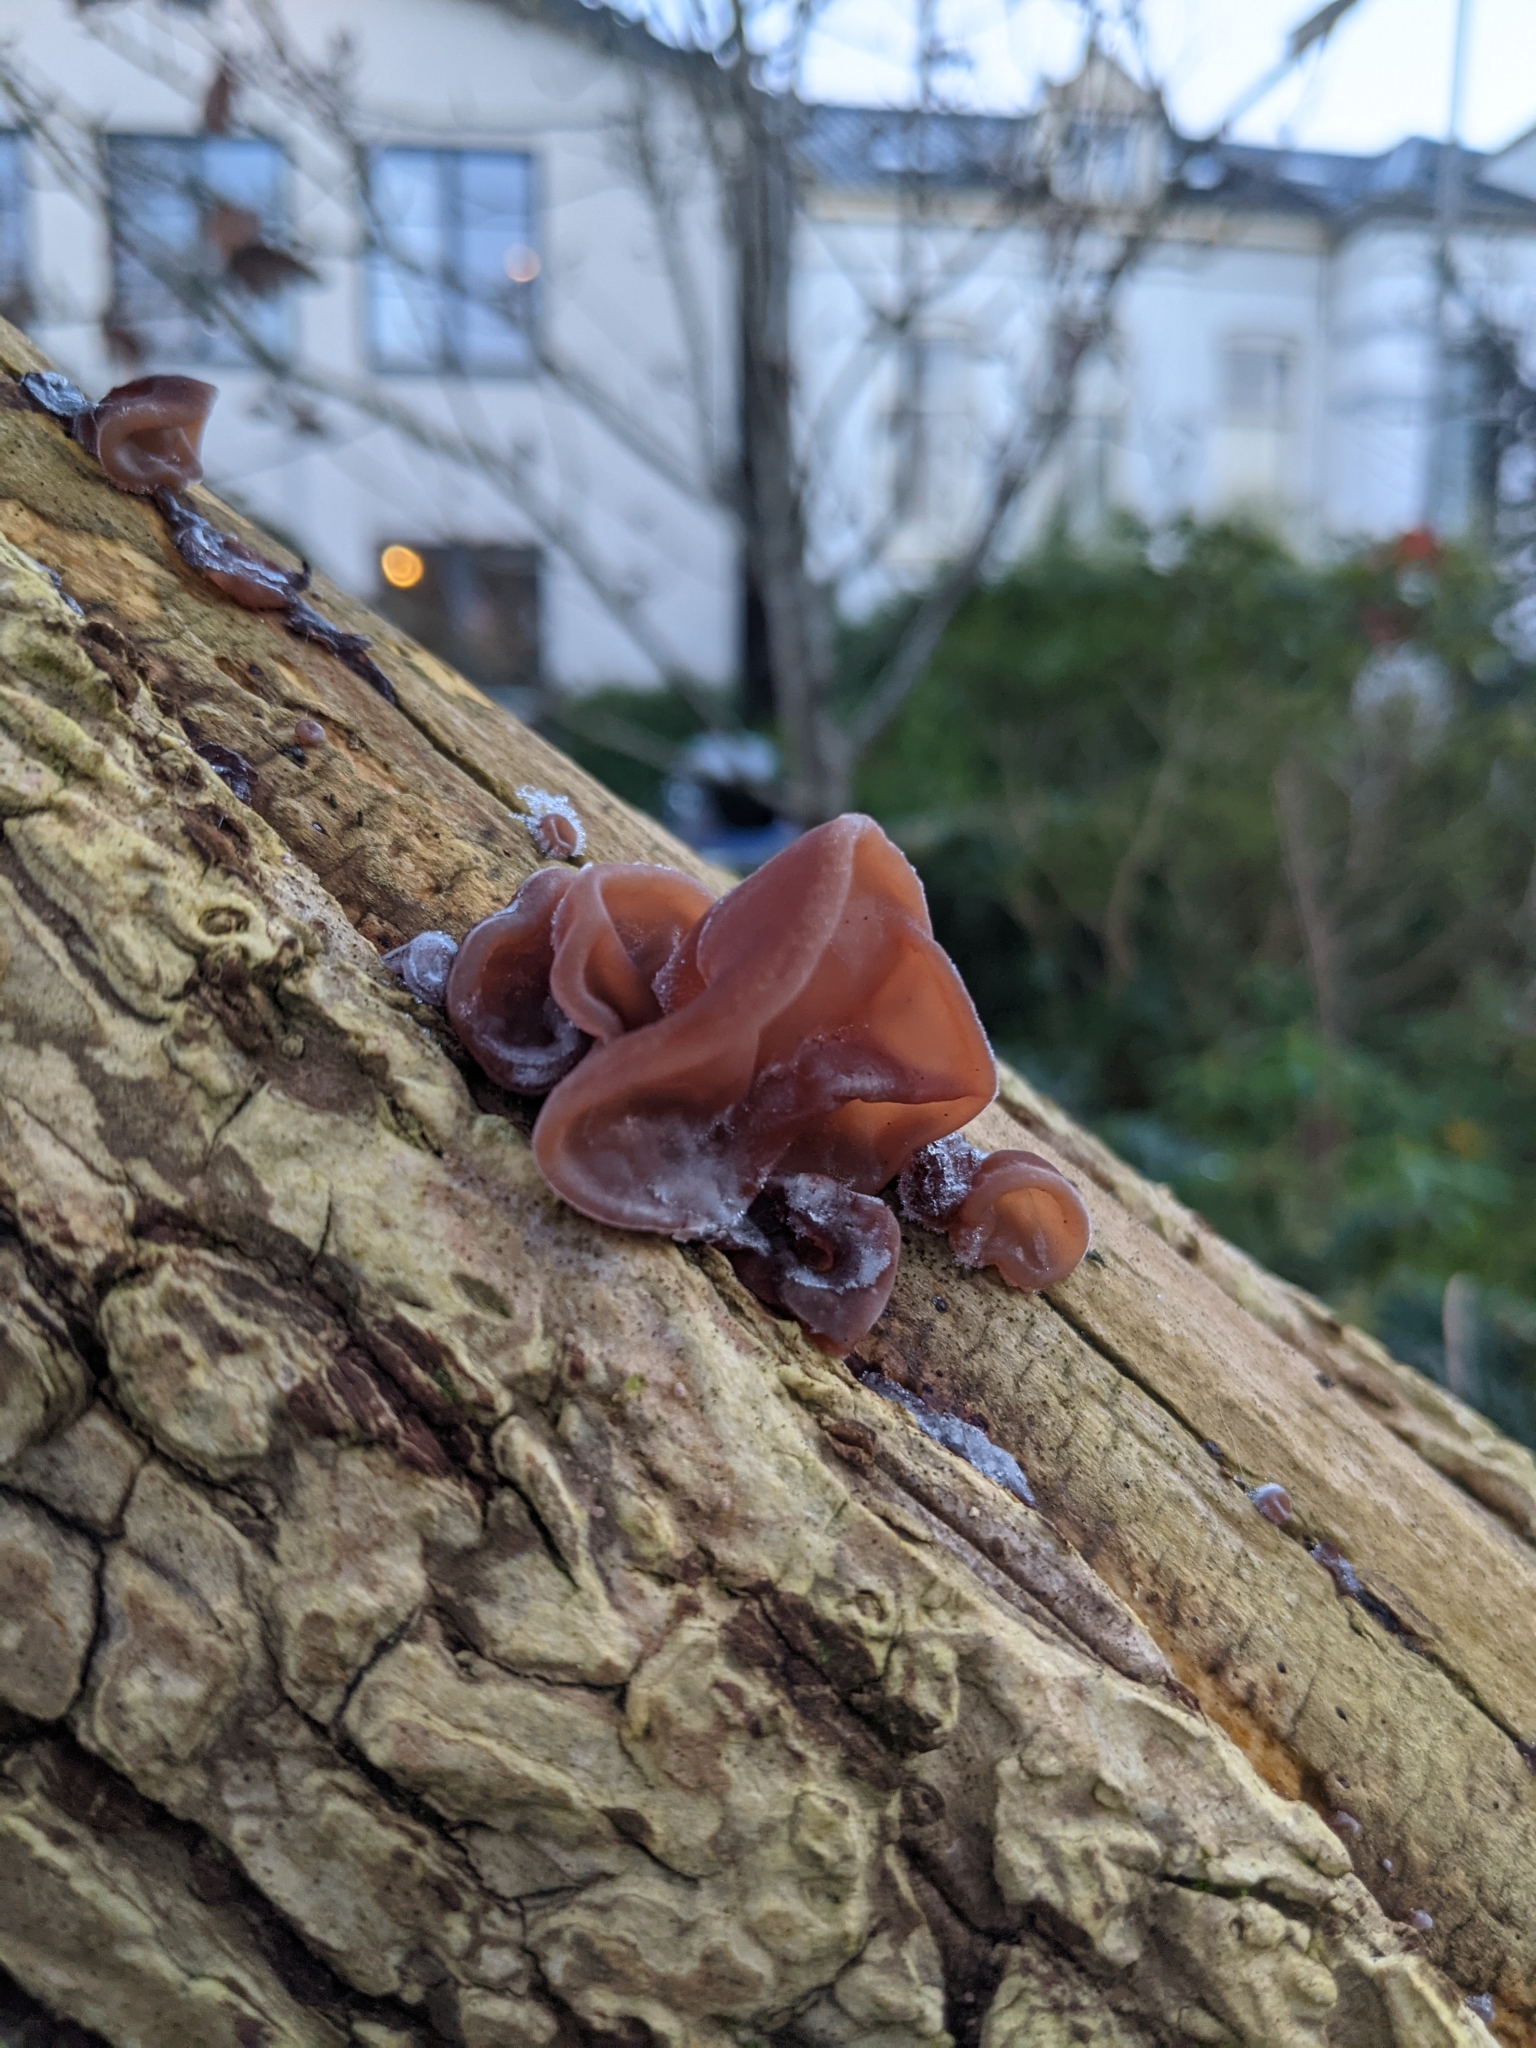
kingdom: Fungi
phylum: Basidiomycota
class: Agaricomycetes
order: Auriculariales
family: Auriculariaceae
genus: Auricularia
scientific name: Auricularia auricula-judae
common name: Jelly ear
